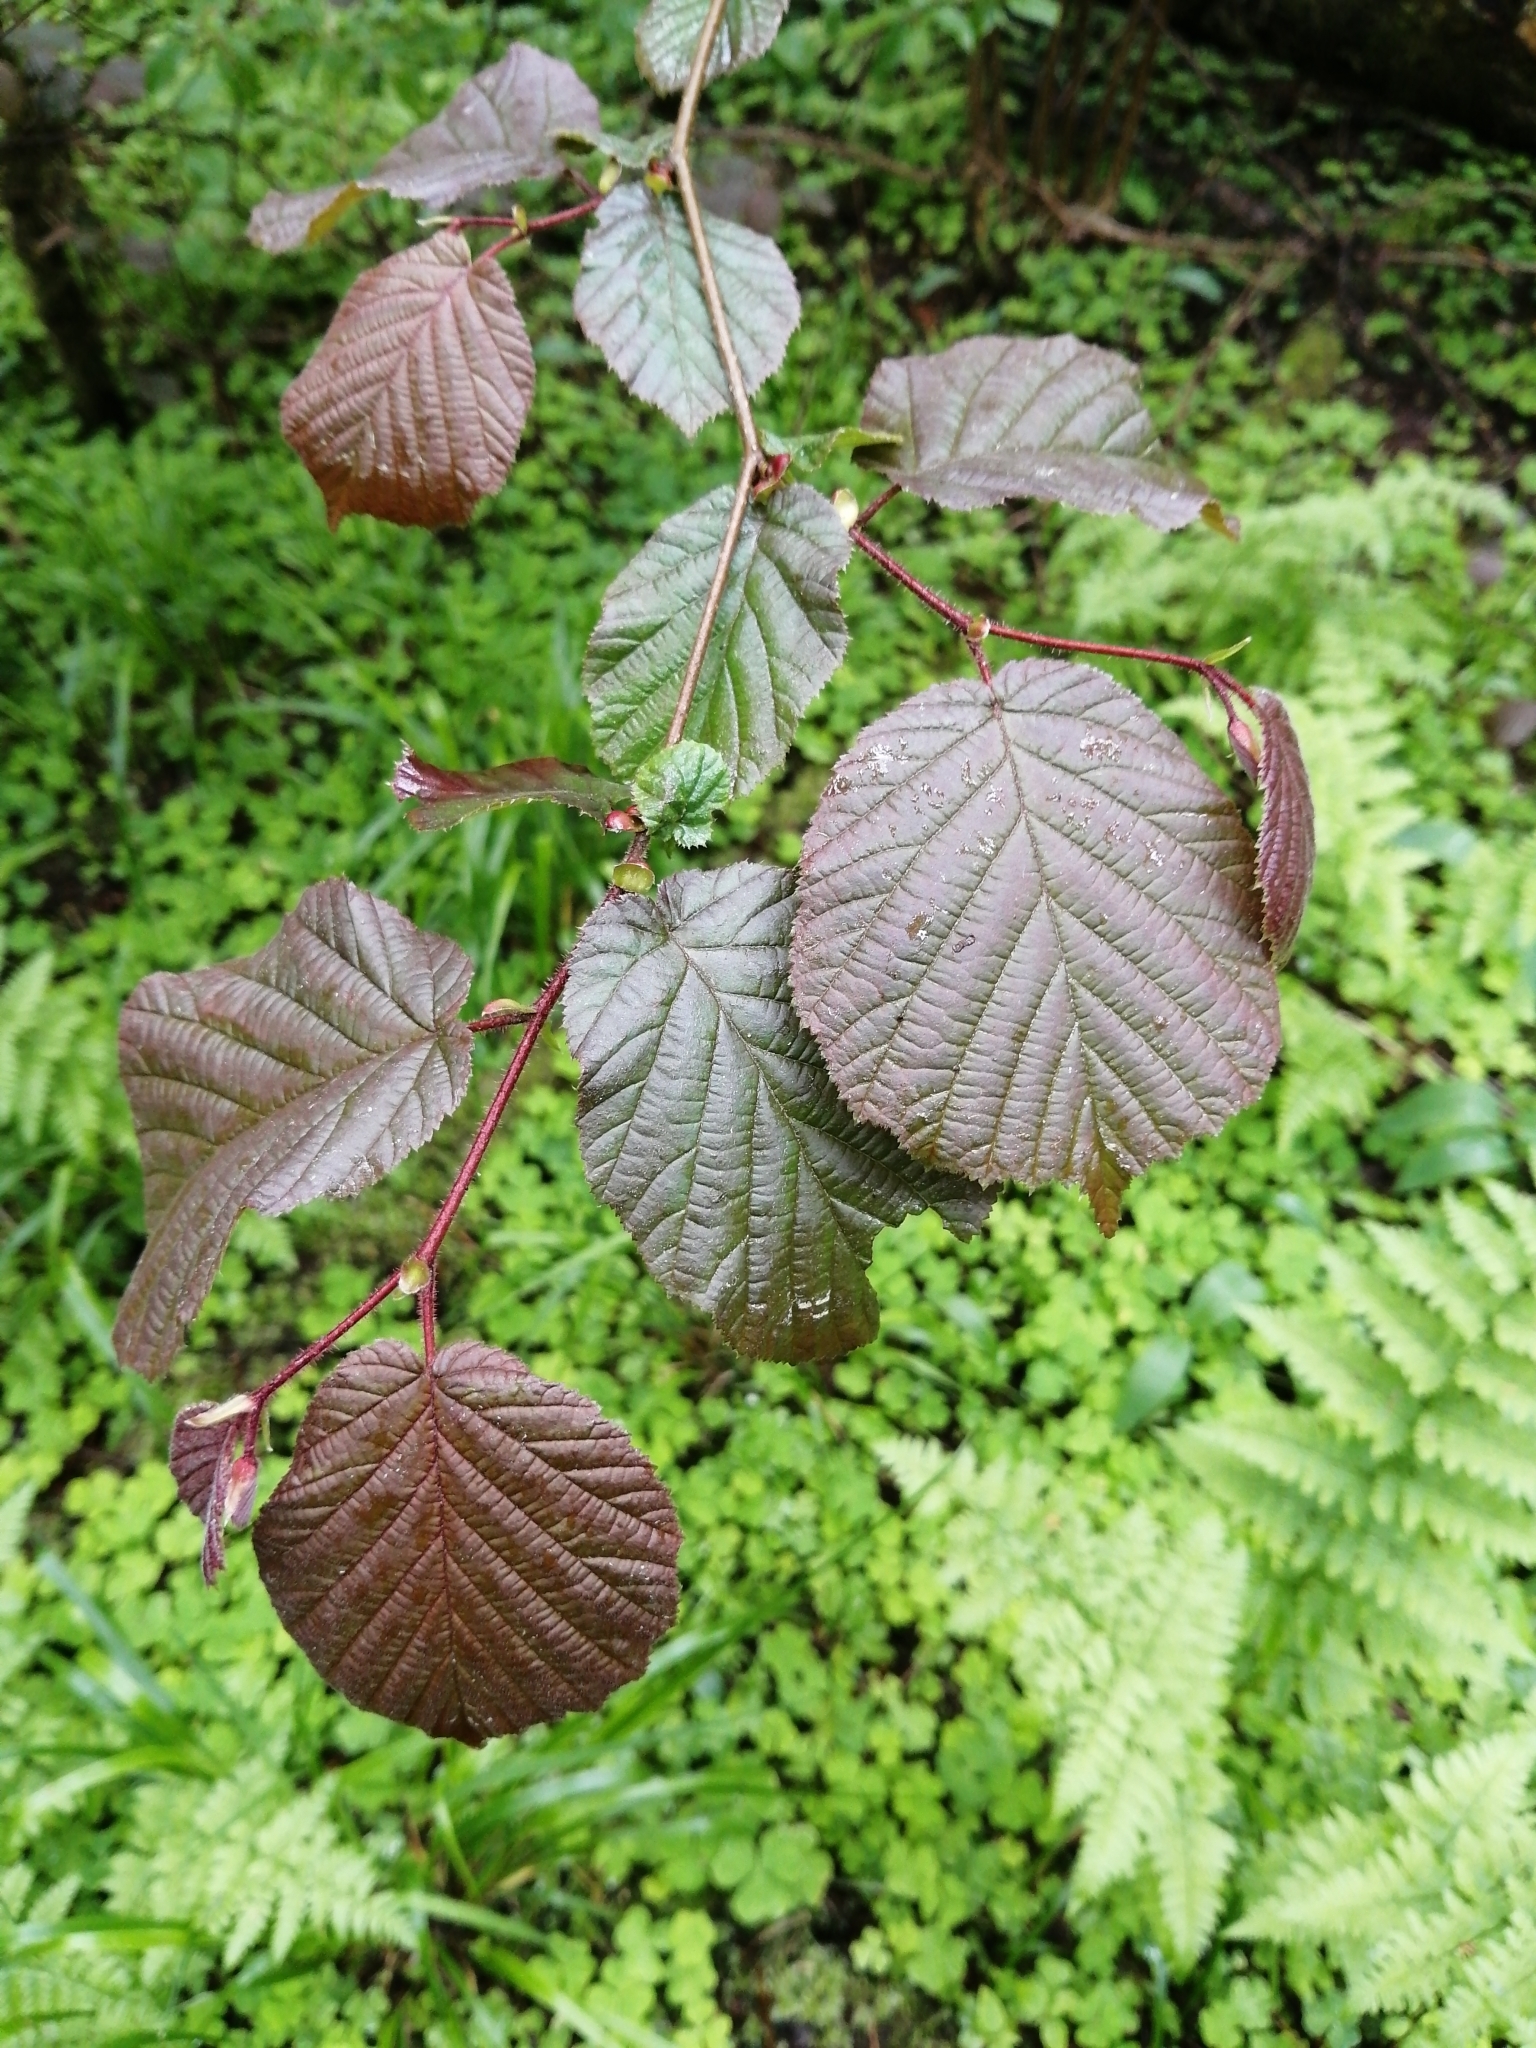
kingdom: Plantae
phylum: Tracheophyta
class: Magnoliopsida
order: Fagales
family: Betulaceae
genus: Corylus
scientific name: Corylus avellana
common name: European hazel
